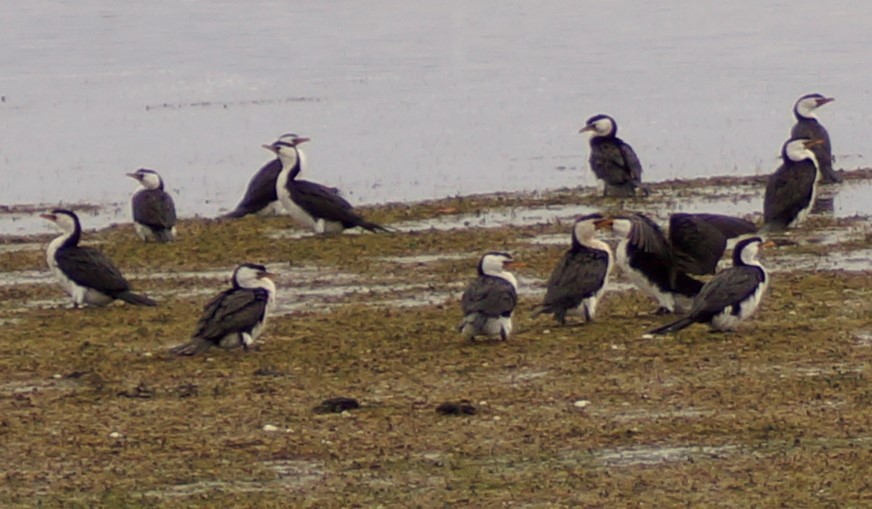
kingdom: Animalia
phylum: Chordata
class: Aves
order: Suliformes
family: Phalacrocoracidae
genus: Microcarbo
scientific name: Microcarbo melanoleucos
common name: Little pied cormorant
